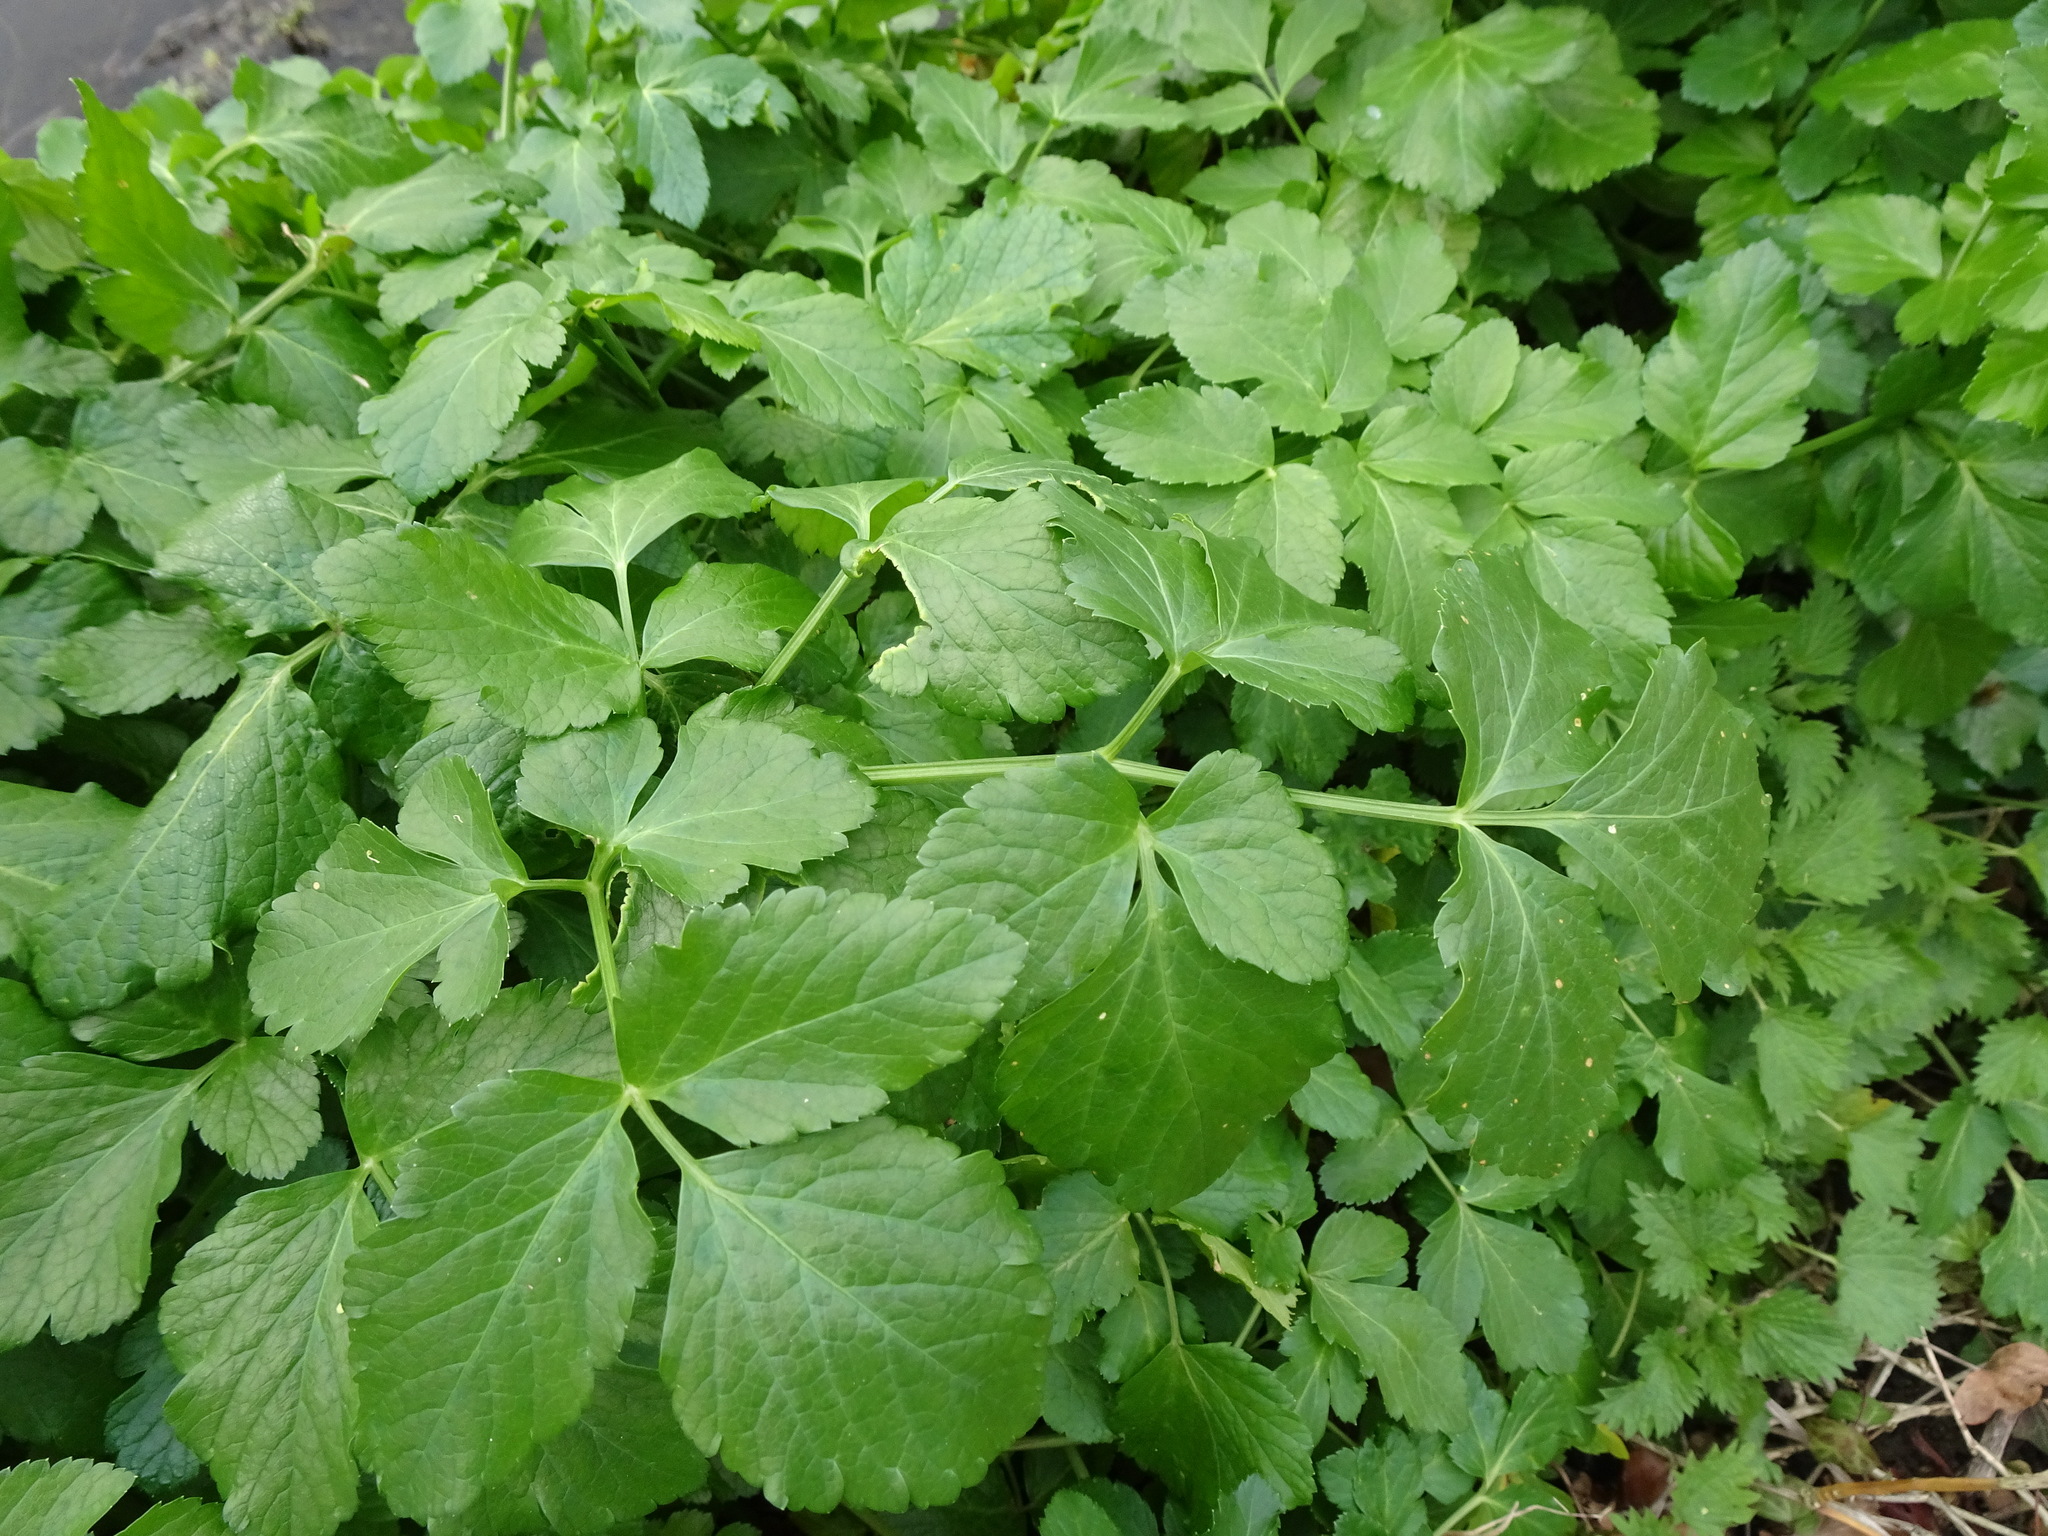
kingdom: Plantae
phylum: Tracheophyta
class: Magnoliopsida
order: Apiales
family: Apiaceae
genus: Smyrnium
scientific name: Smyrnium olusatrum
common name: Alexanders
